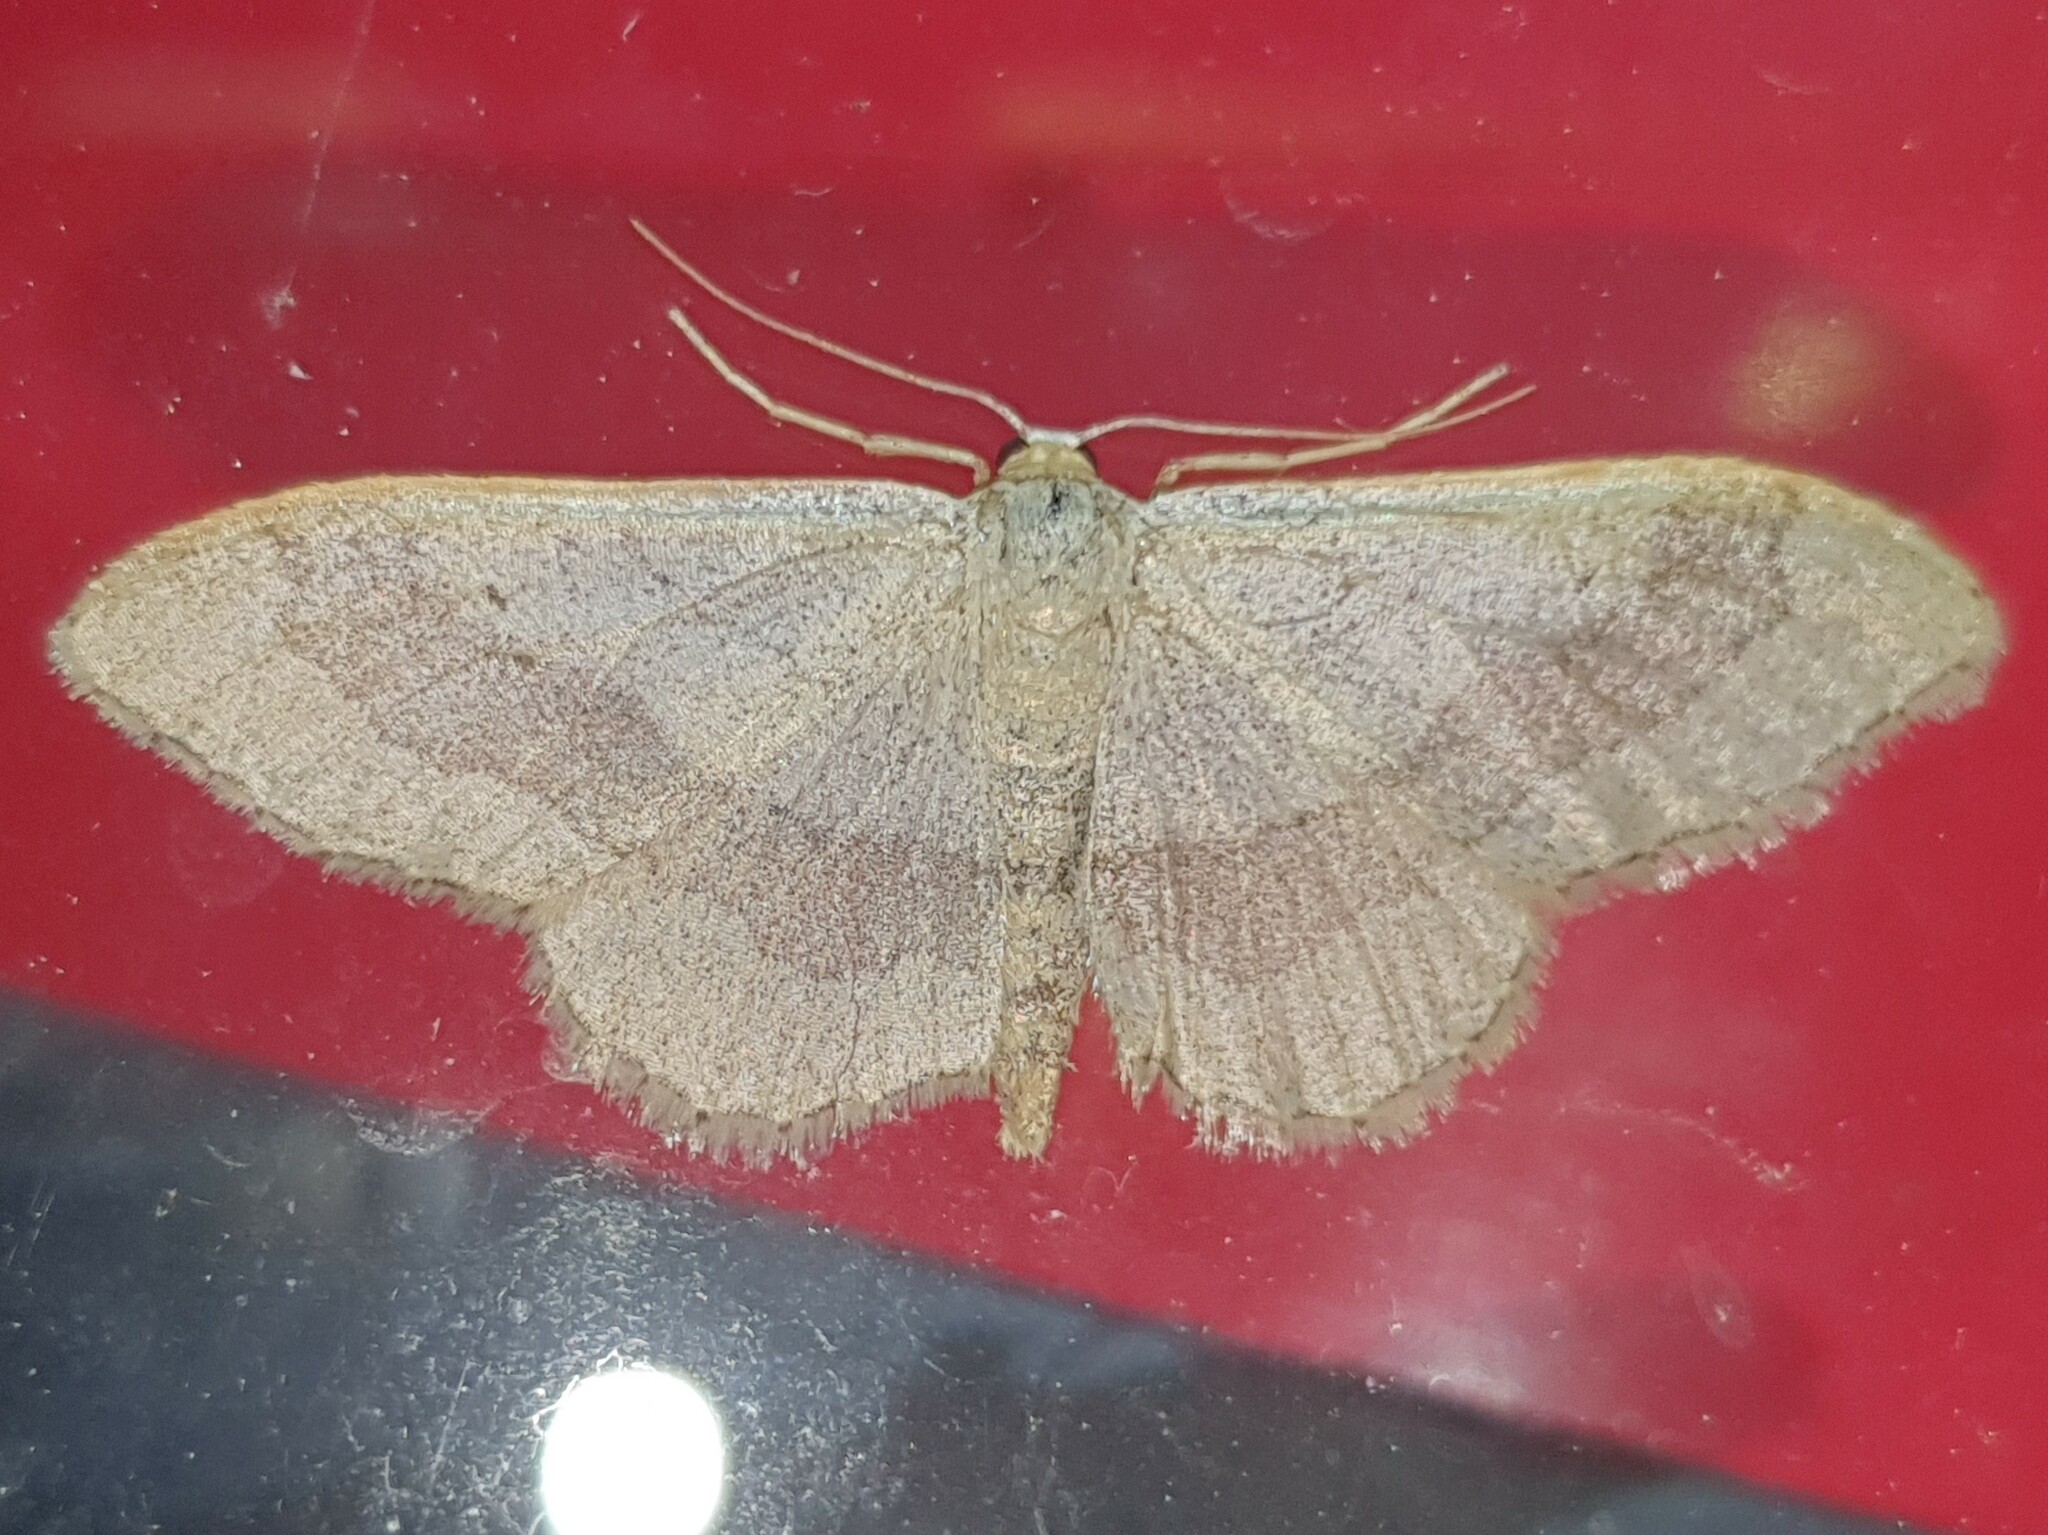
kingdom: Animalia
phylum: Arthropoda
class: Insecta
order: Lepidoptera
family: Geometridae
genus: Idaea
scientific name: Idaea aversata
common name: Riband wave
